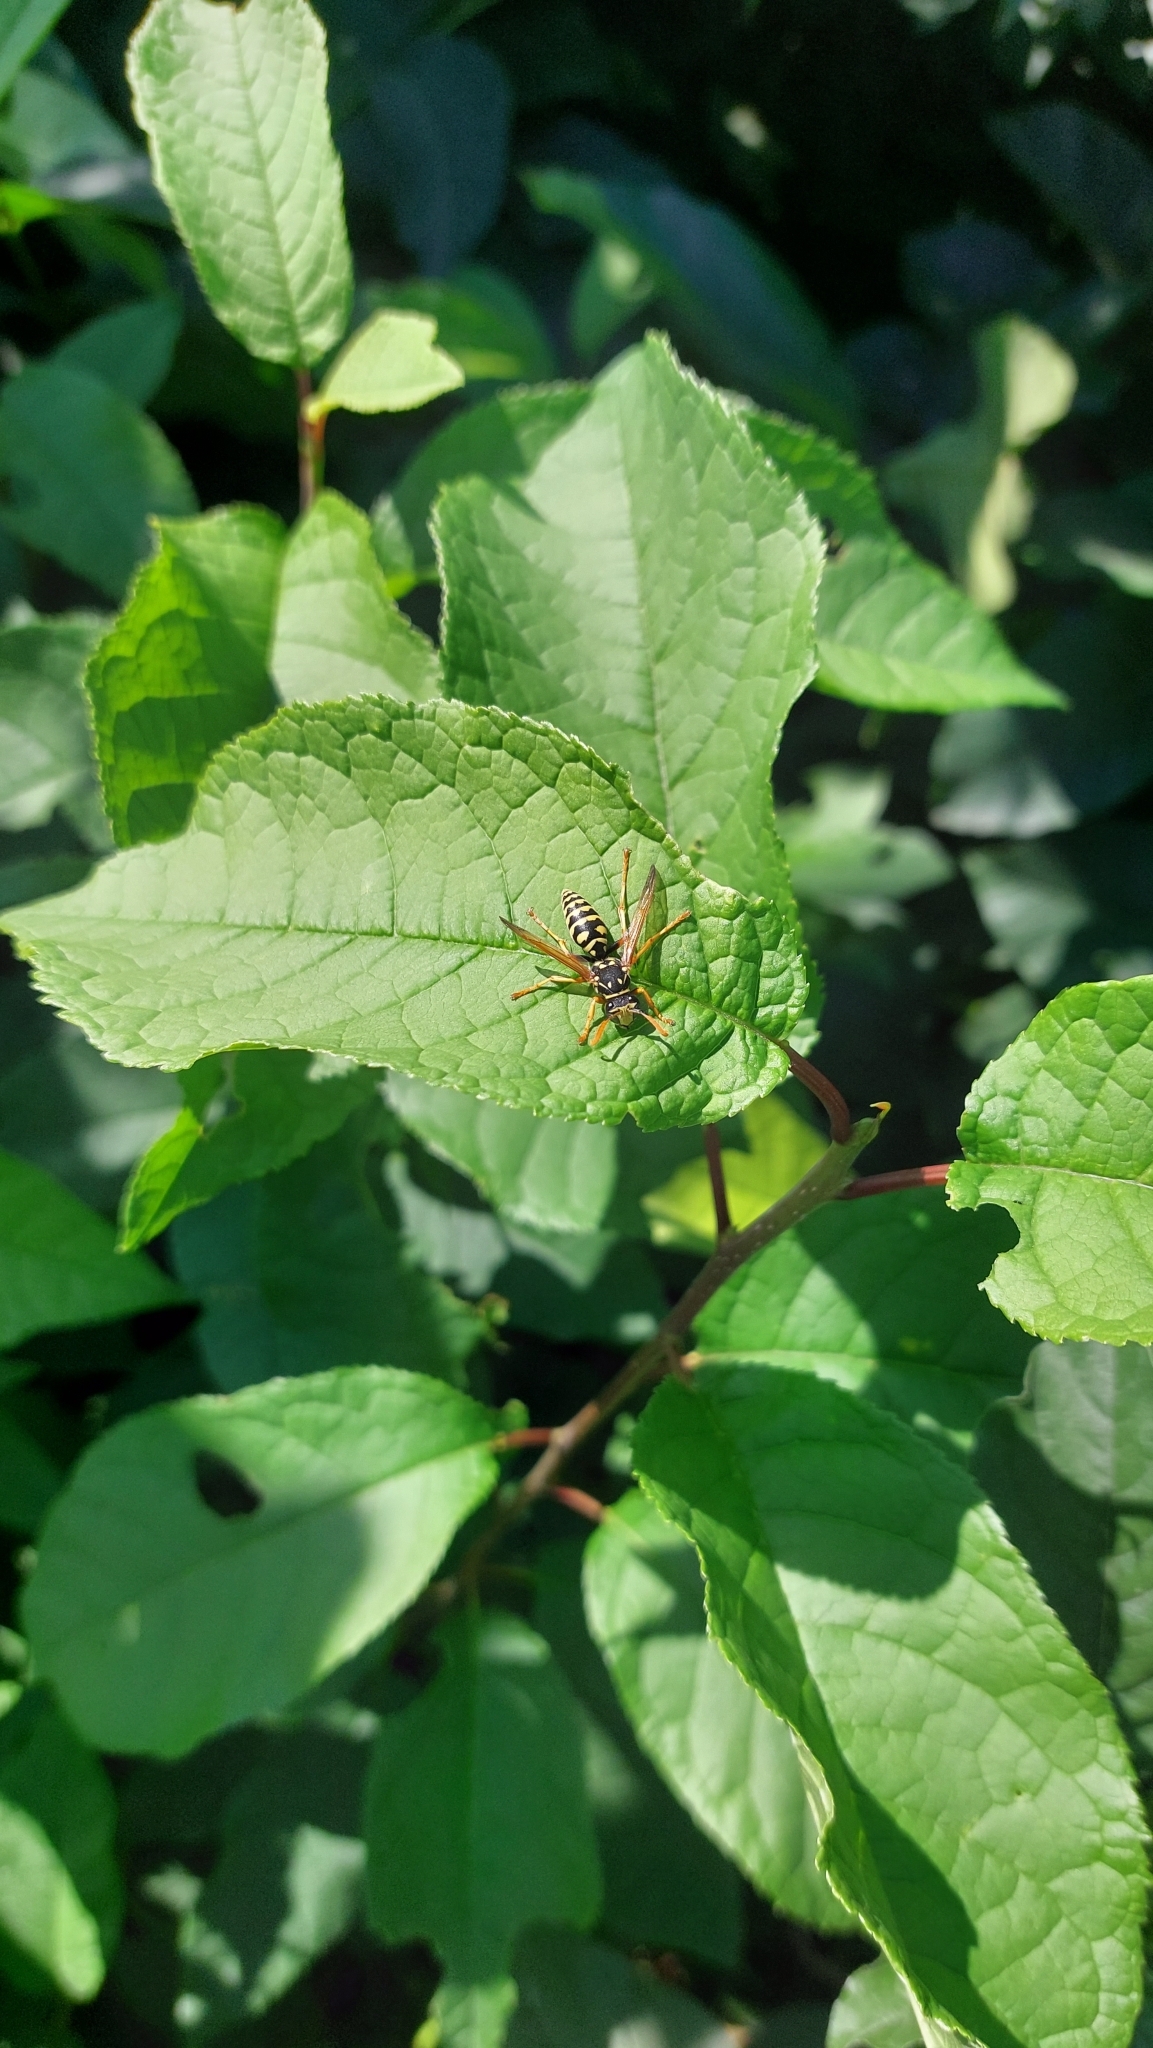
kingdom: Animalia
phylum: Arthropoda
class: Insecta
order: Hymenoptera
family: Eumenidae
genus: Polistes
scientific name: Polistes
